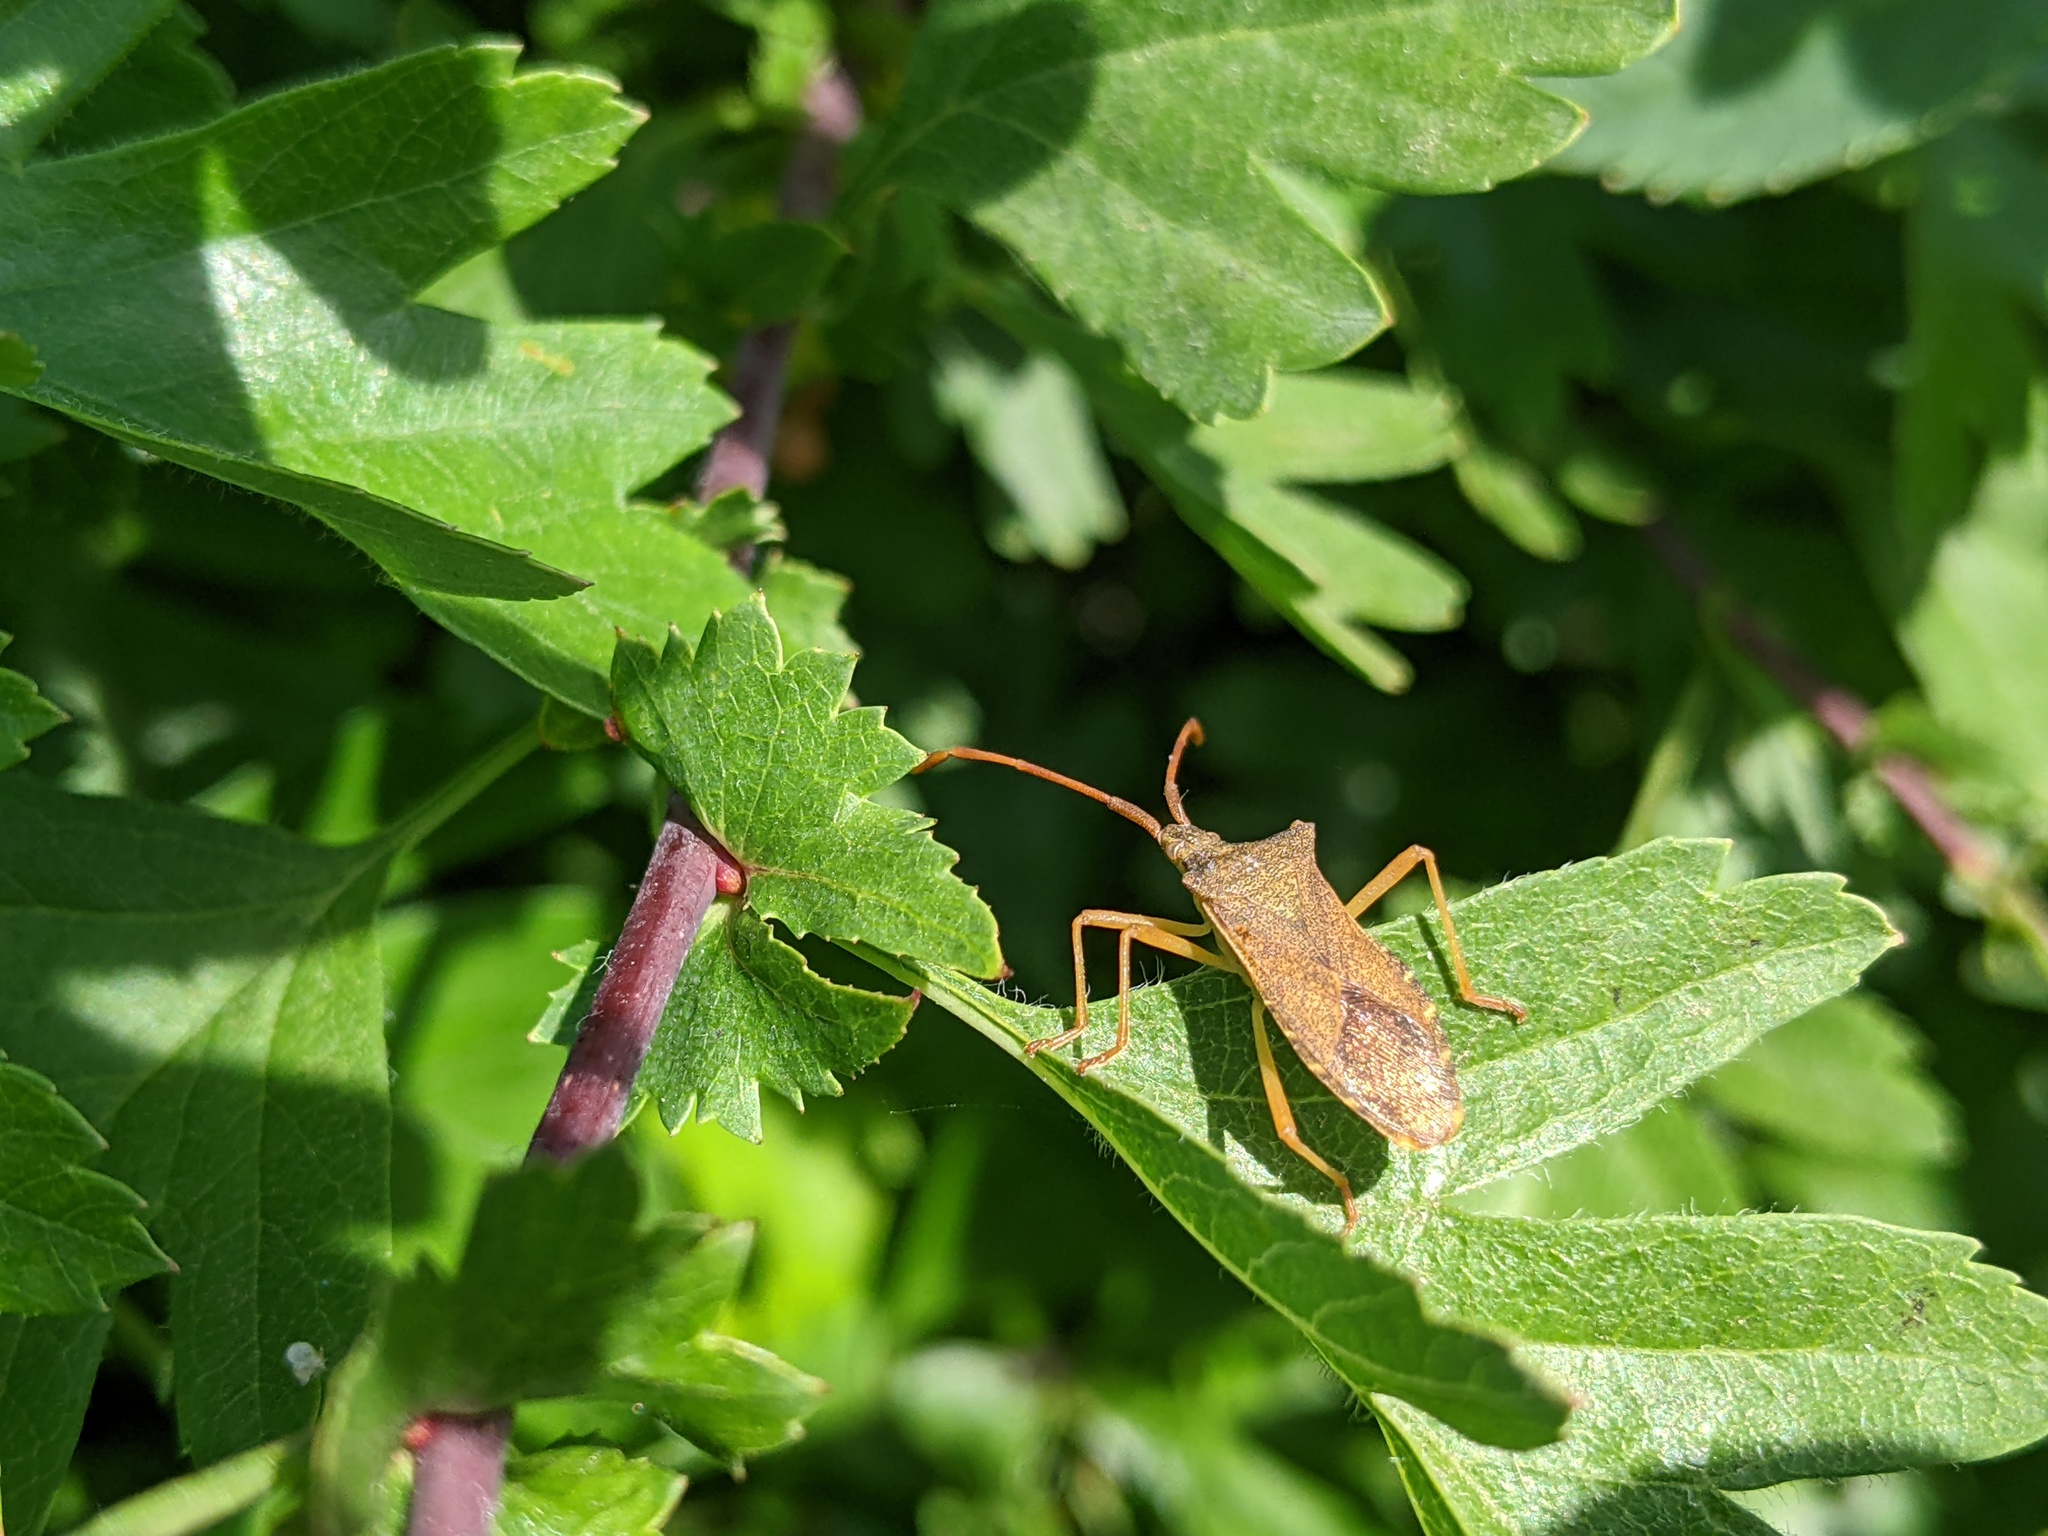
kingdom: Animalia
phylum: Arthropoda
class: Insecta
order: Hemiptera
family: Coreidae
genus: Gonocerus
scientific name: Gonocerus acuteangulatus
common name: Box bug
